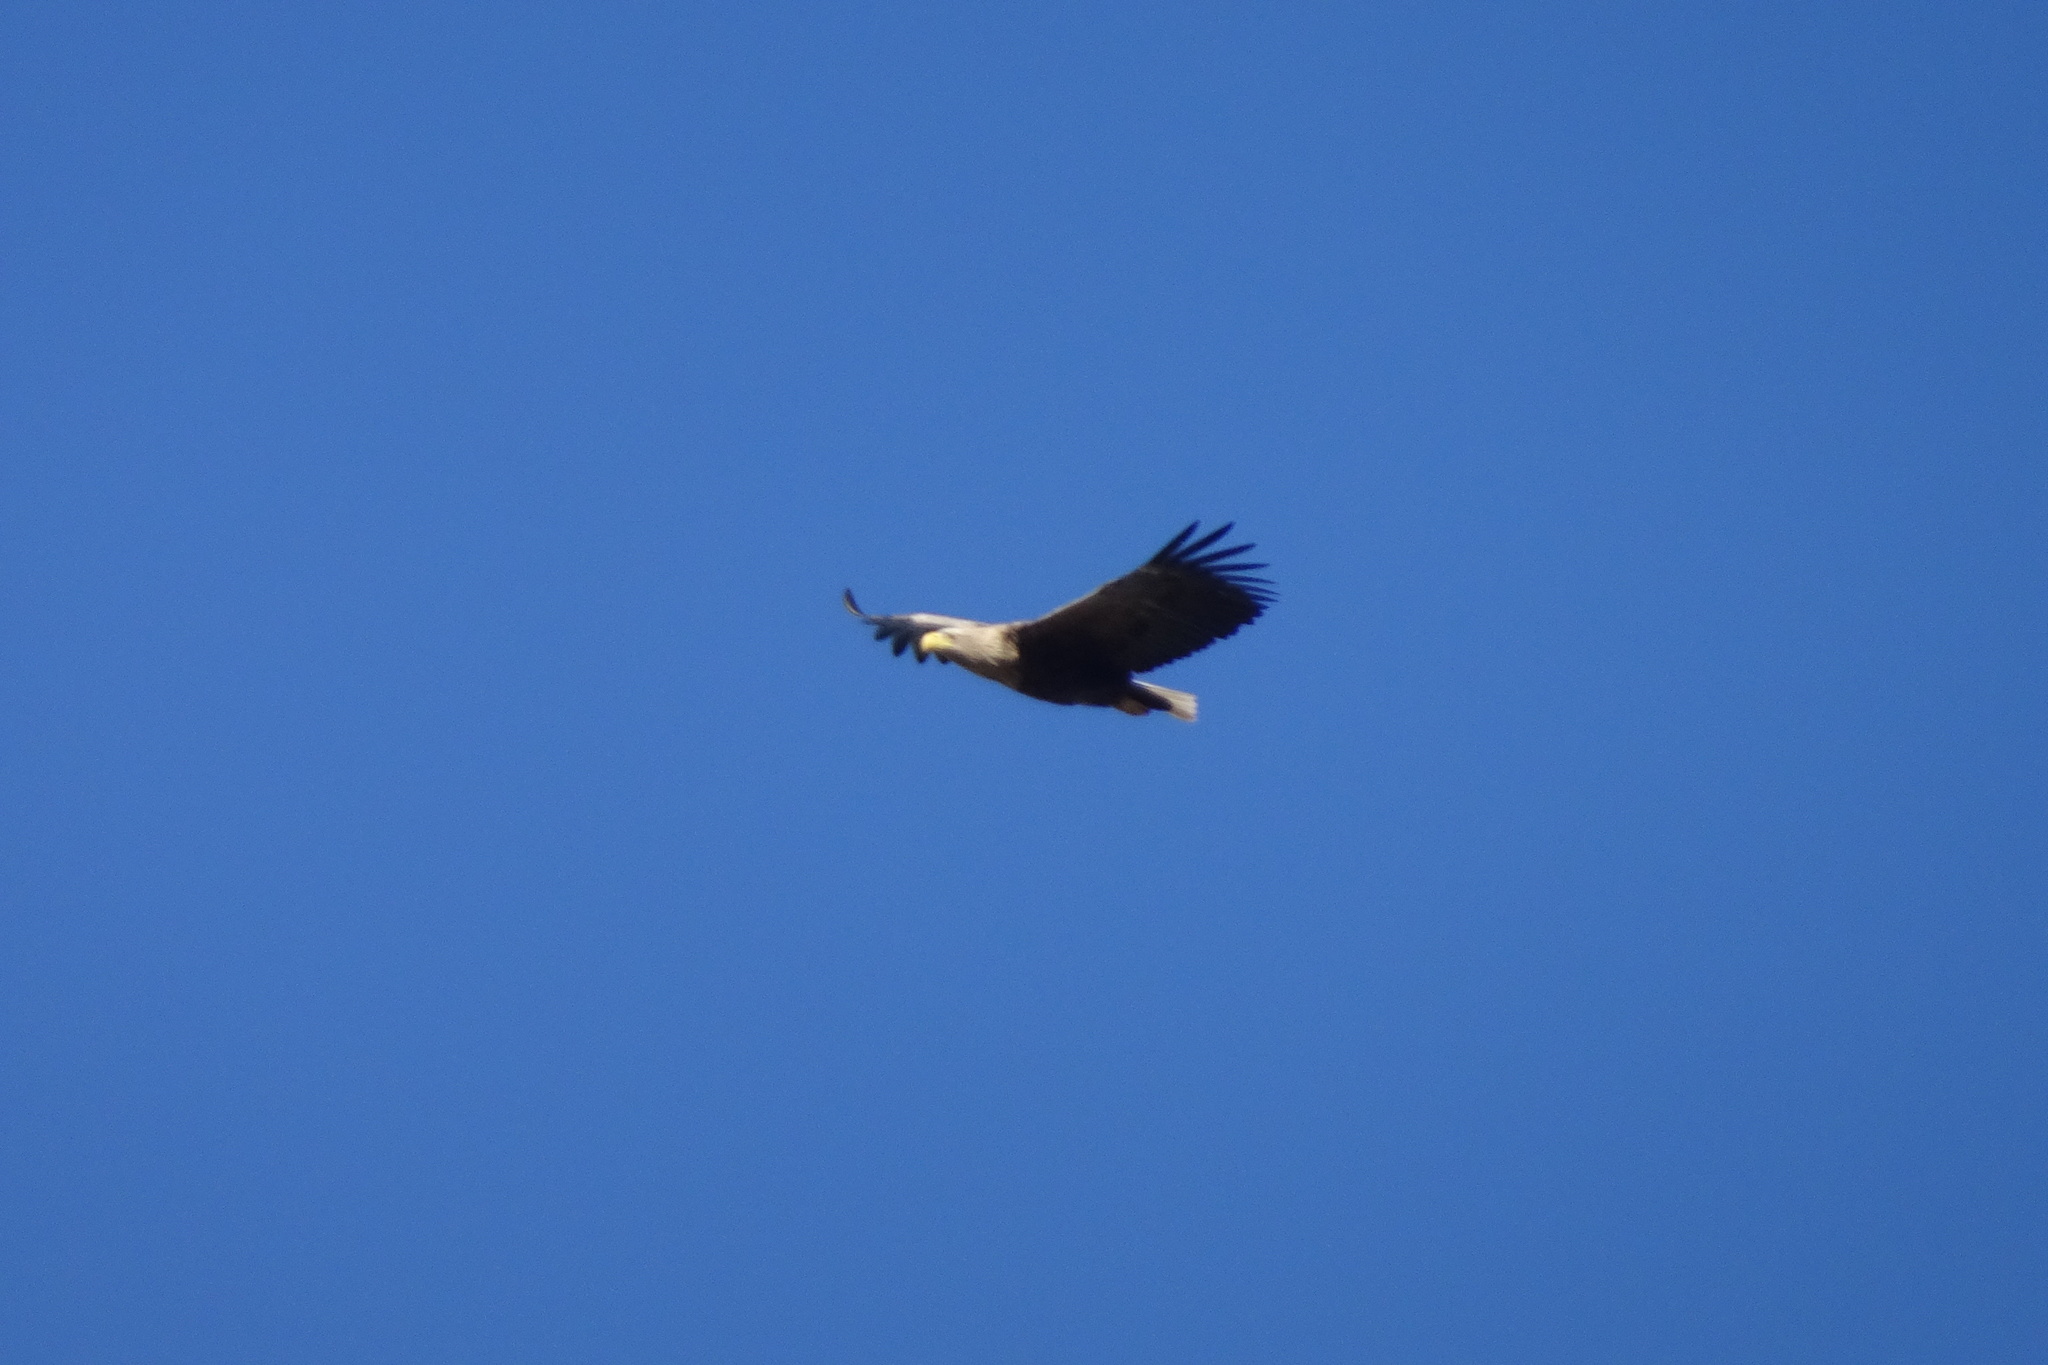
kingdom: Animalia
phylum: Chordata
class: Aves
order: Accipitriformes
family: Accipitridae
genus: Haliaeetus
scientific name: Haliaeetus albicilla
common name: White-tailed eagle
